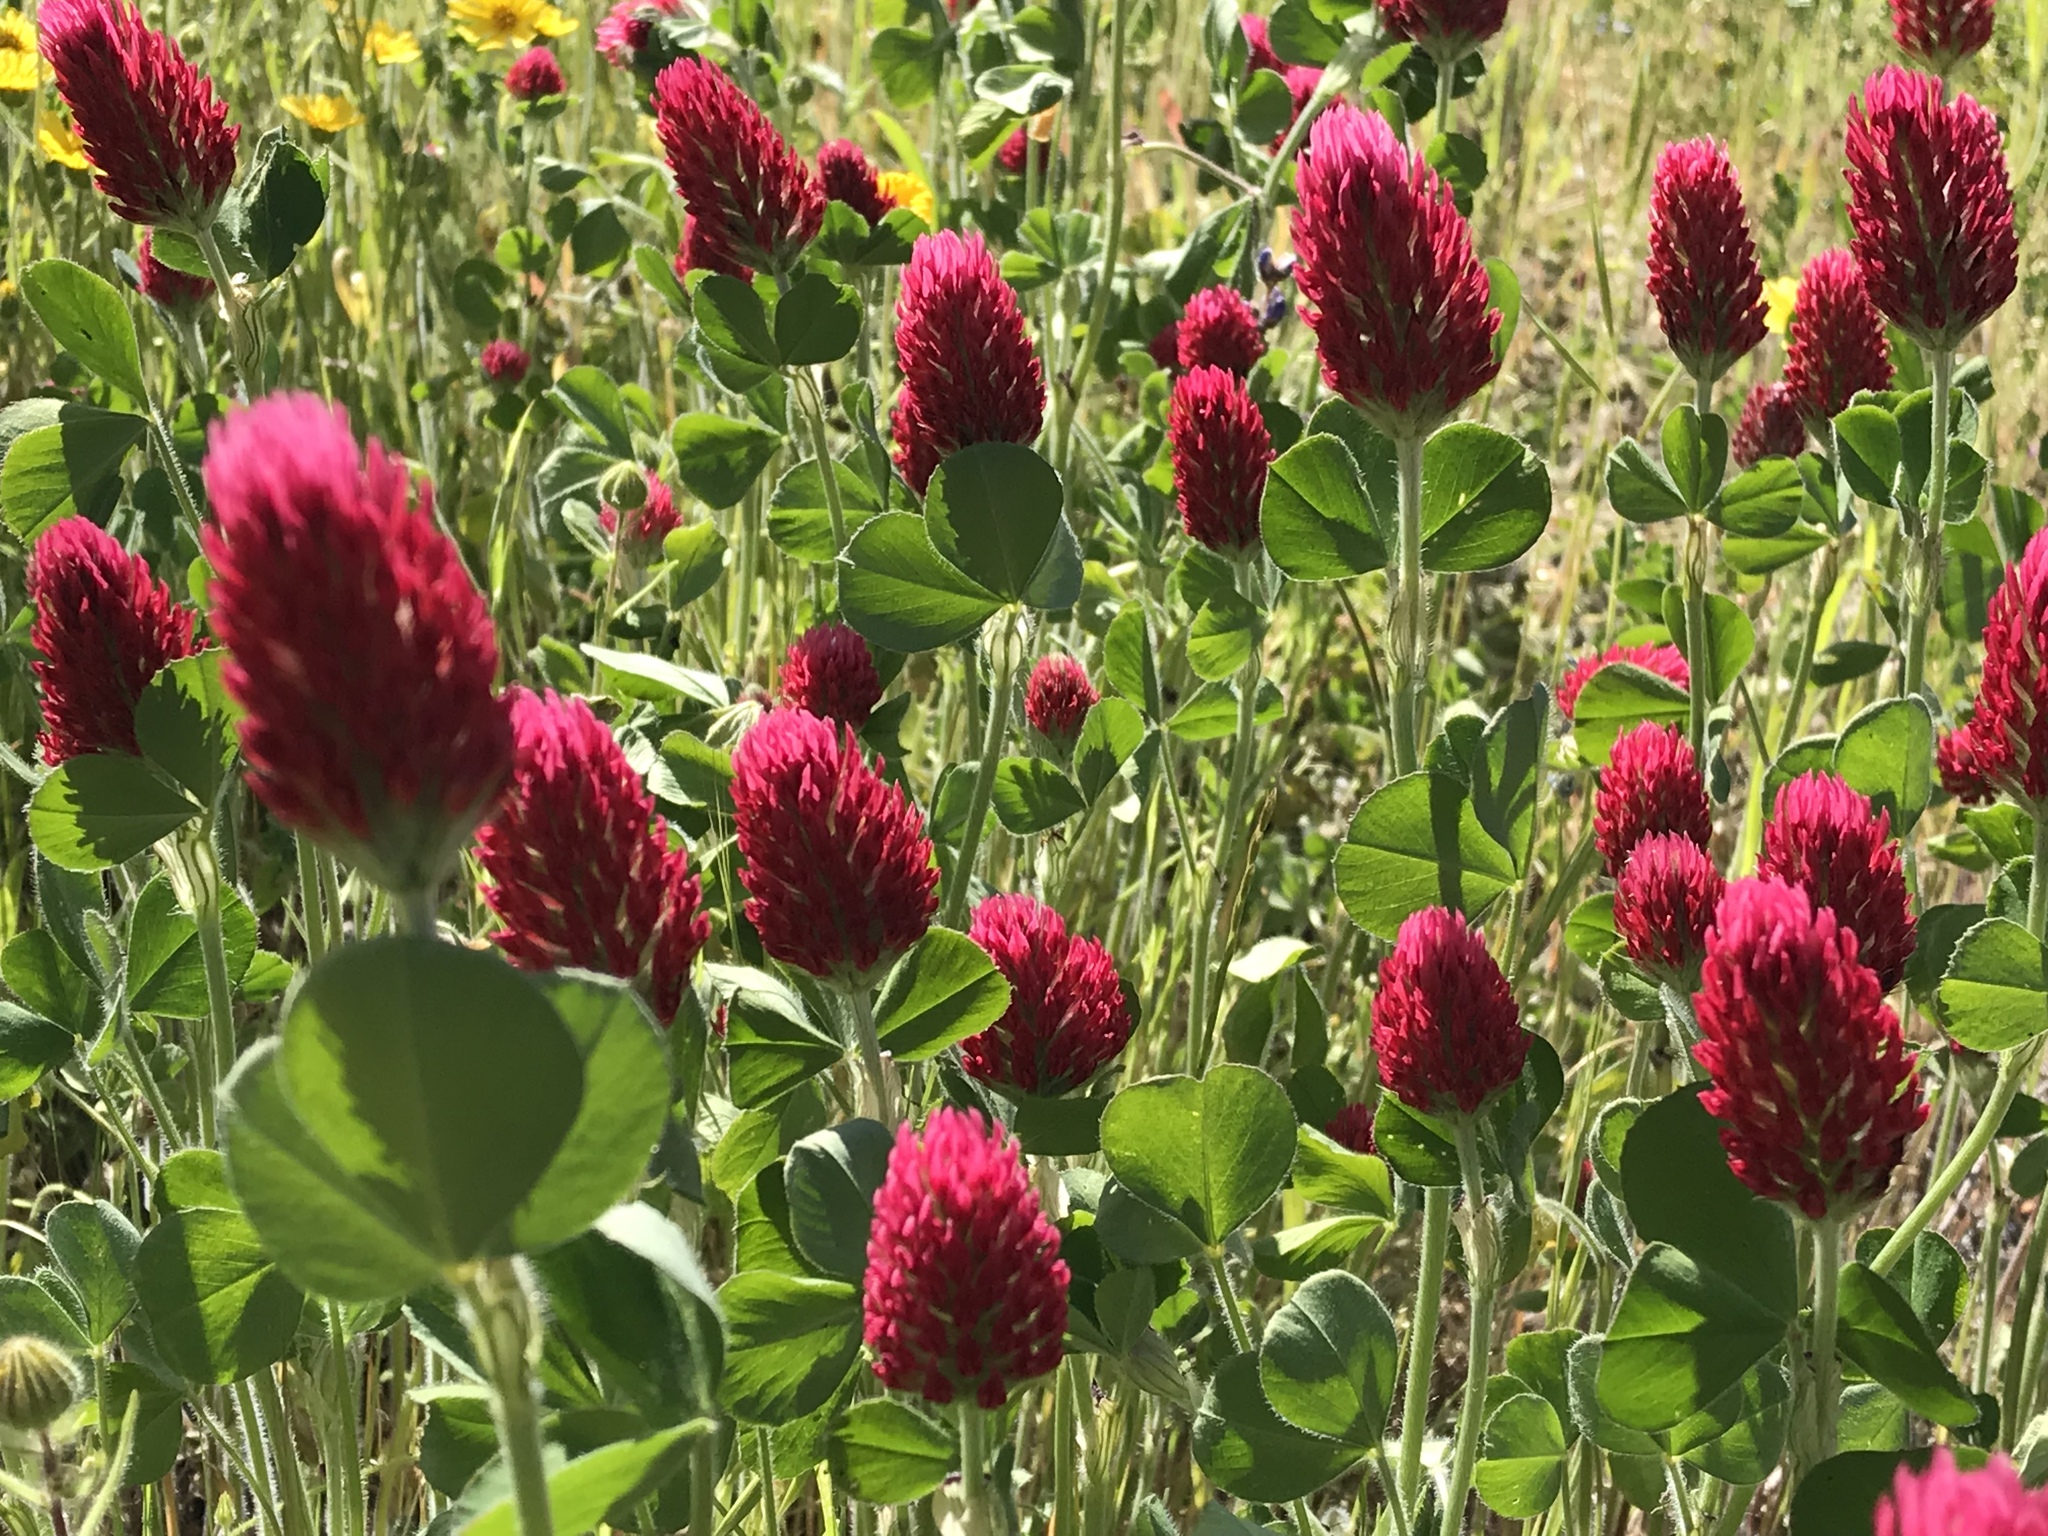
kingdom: Plantae
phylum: Tracheophyta
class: Magnoliopsida
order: Fabales
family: Fabaceae
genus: Trifolium
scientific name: Trifolium incarnatum
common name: Crimson clover
